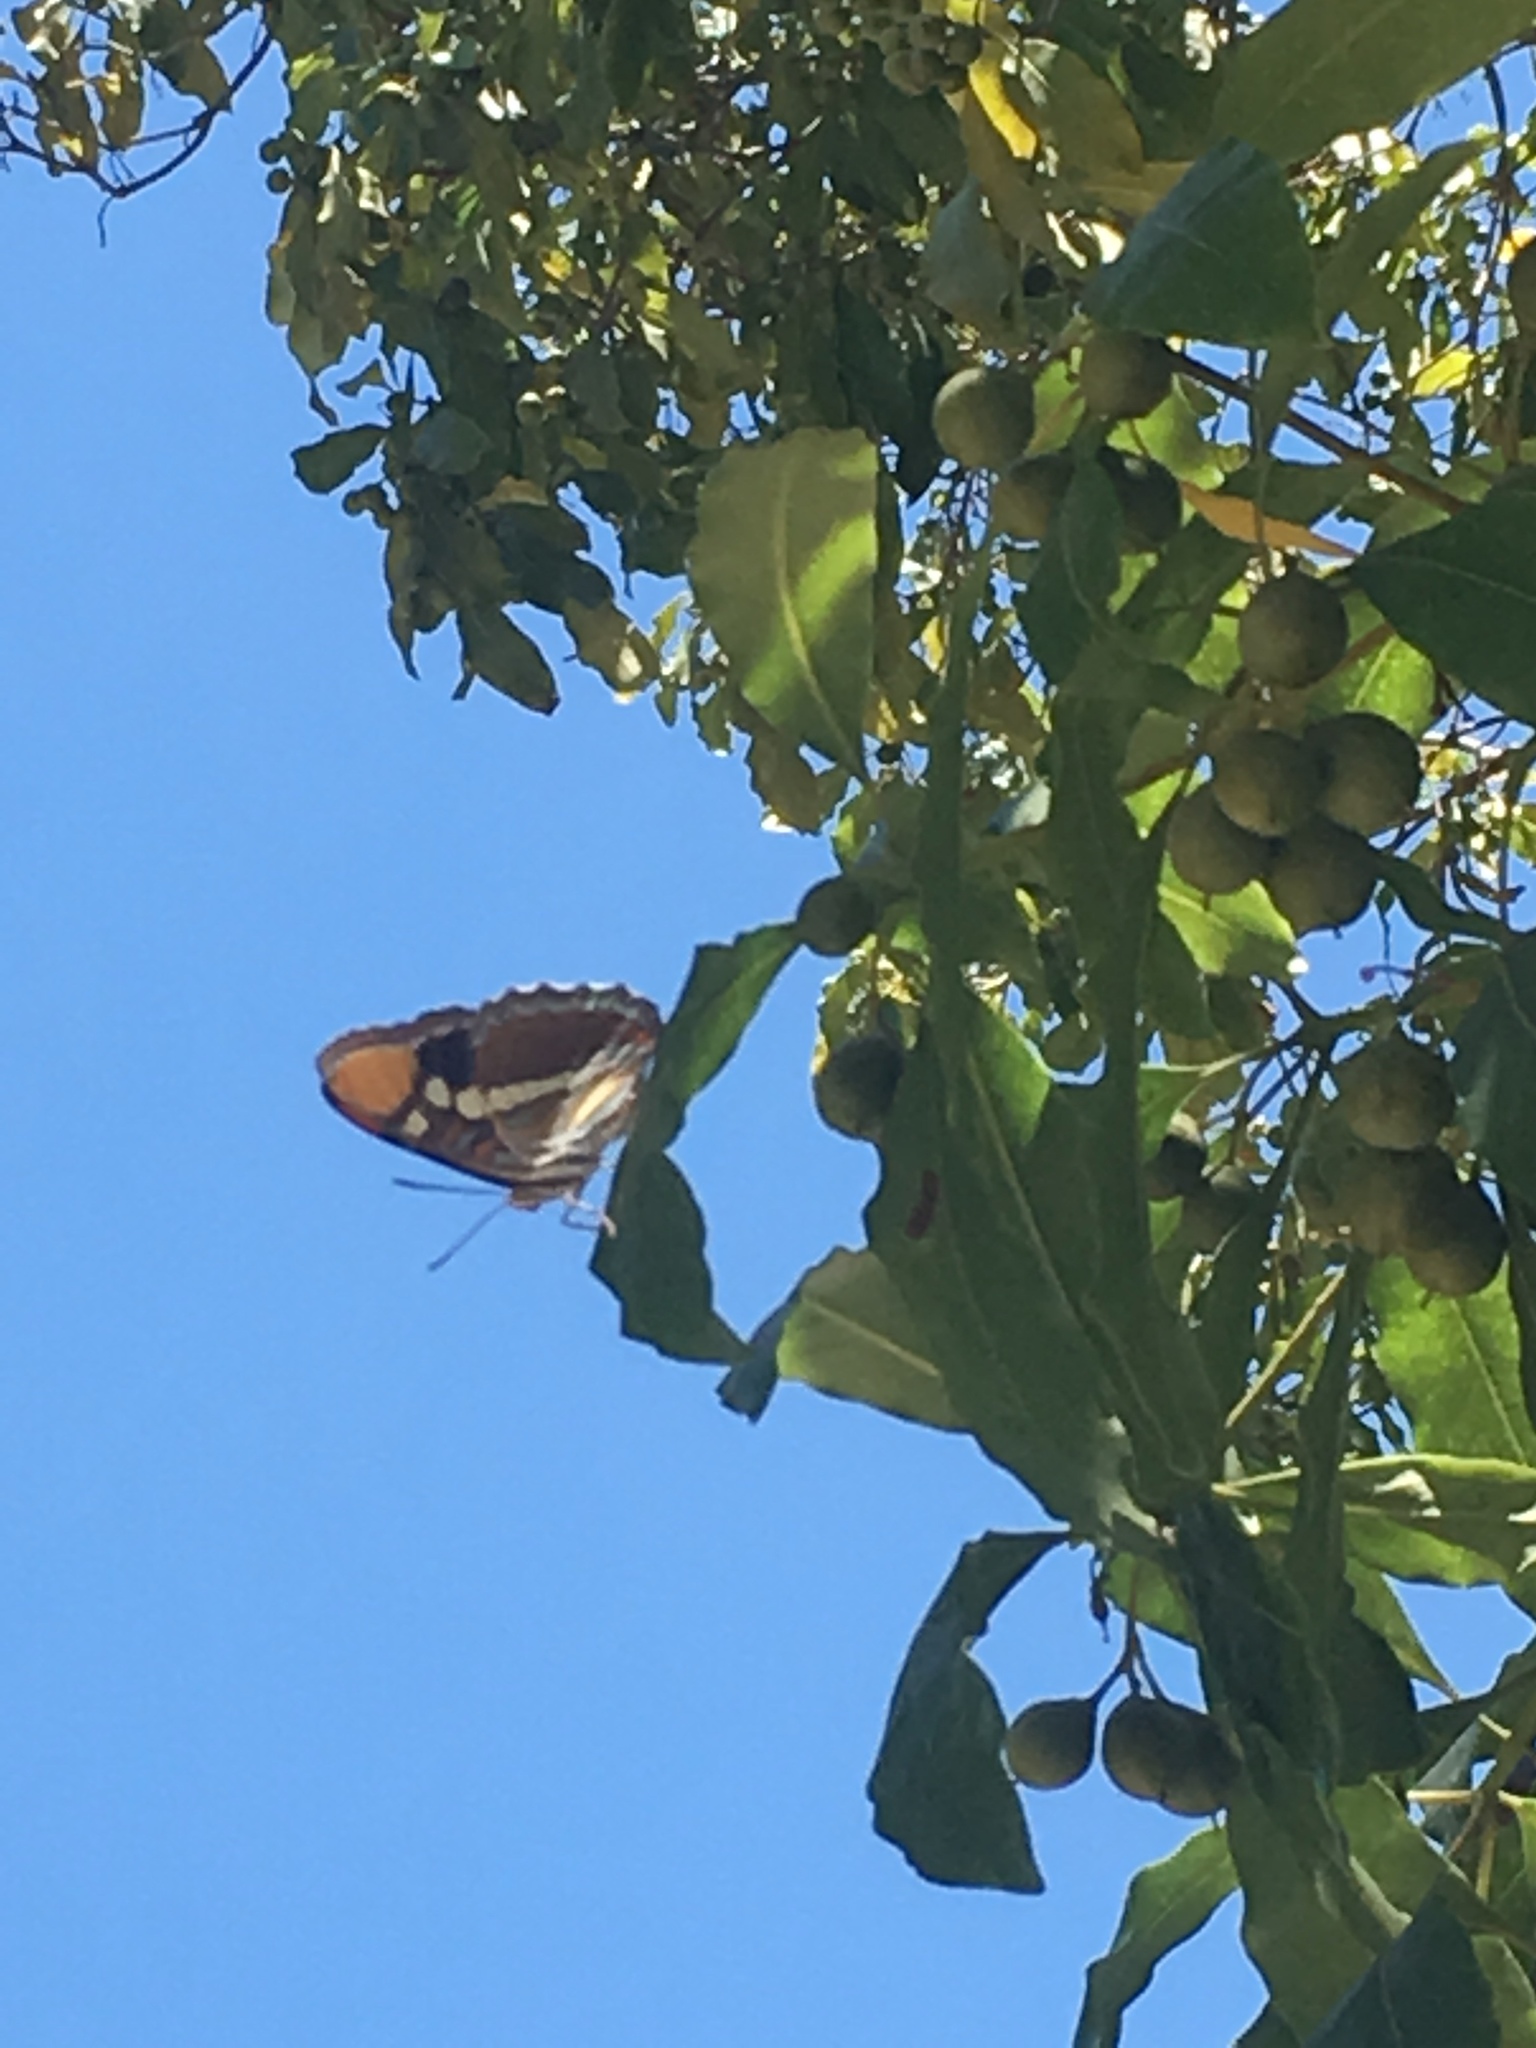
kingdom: Animalia
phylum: Arthropoda
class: Insecta
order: Lepidoptera
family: Nymphalidae
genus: Limenitis
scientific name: Limenitis bredowii
